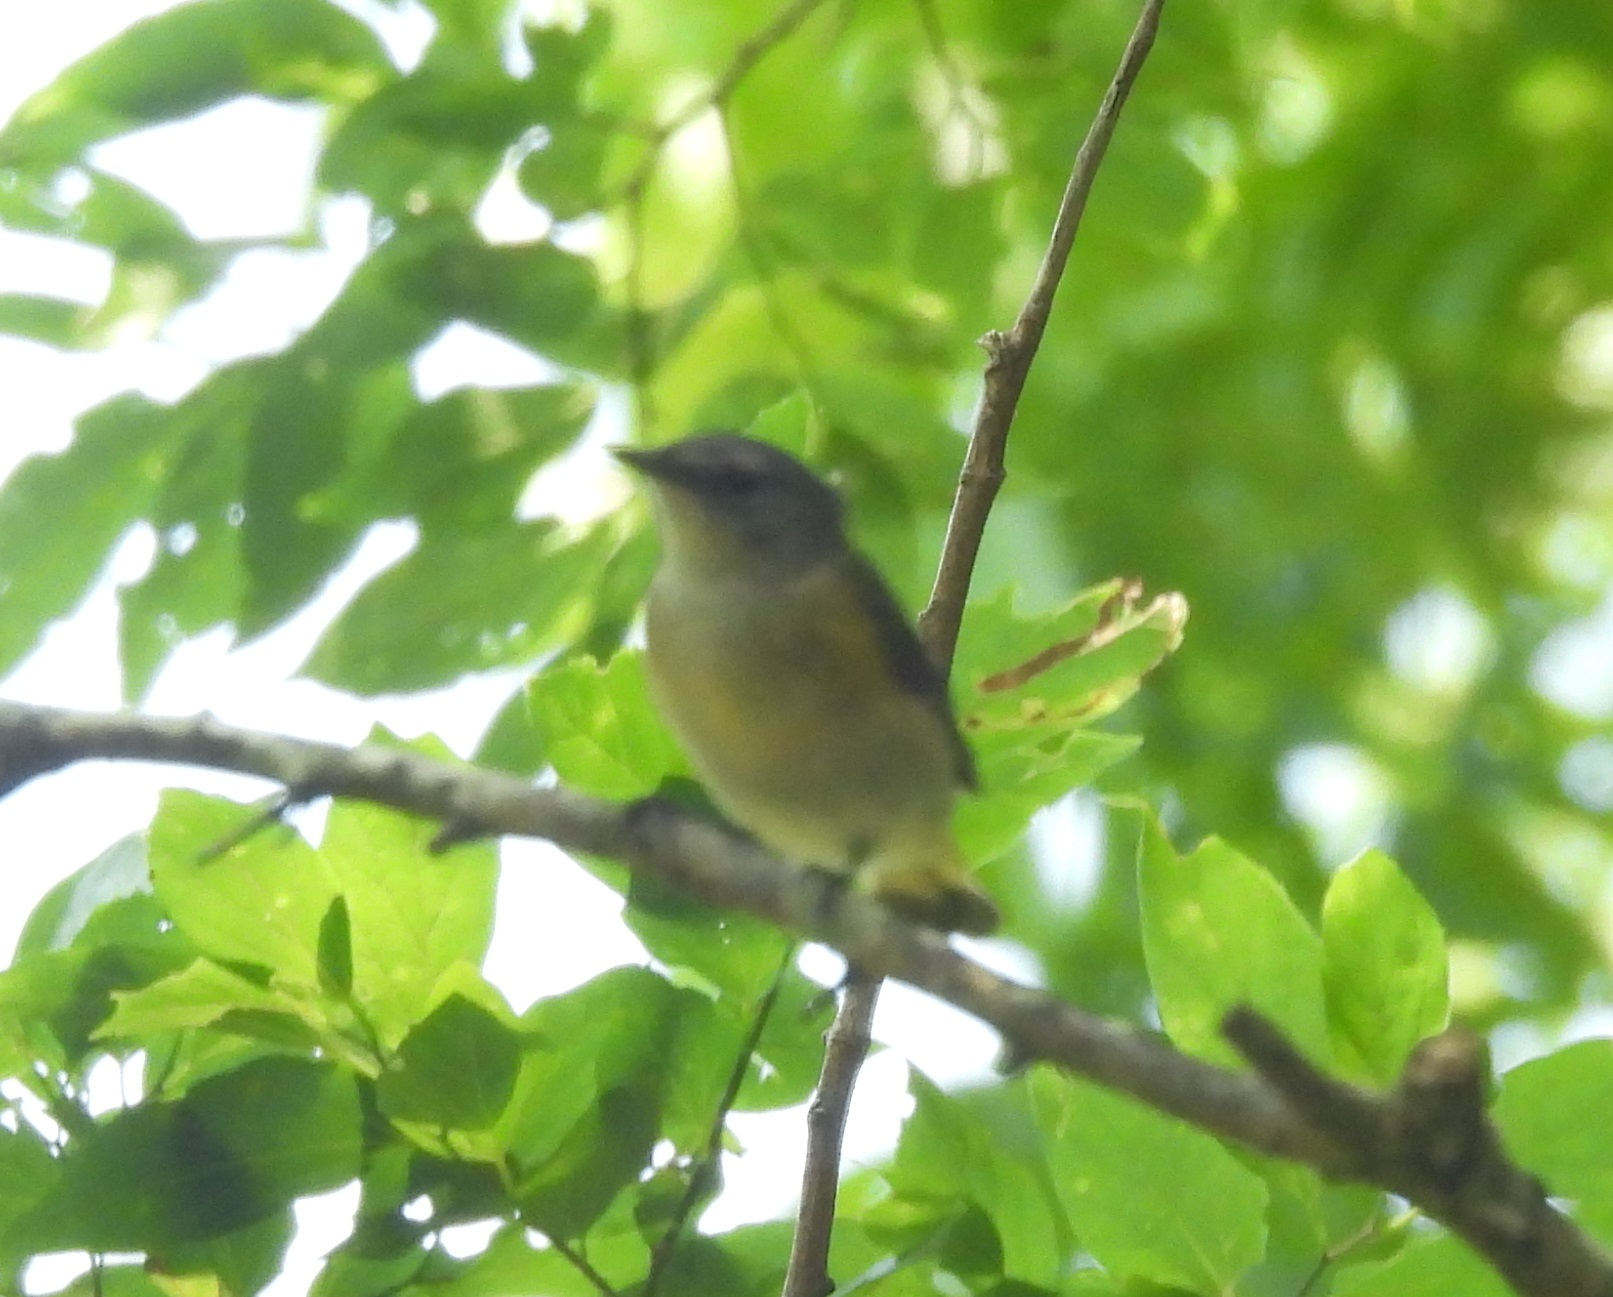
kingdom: Animalia
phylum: Chordata
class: Aves
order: Passeriformes
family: Parulidae
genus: Setophaga
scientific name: Setophaga ruticilla
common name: American redstart
